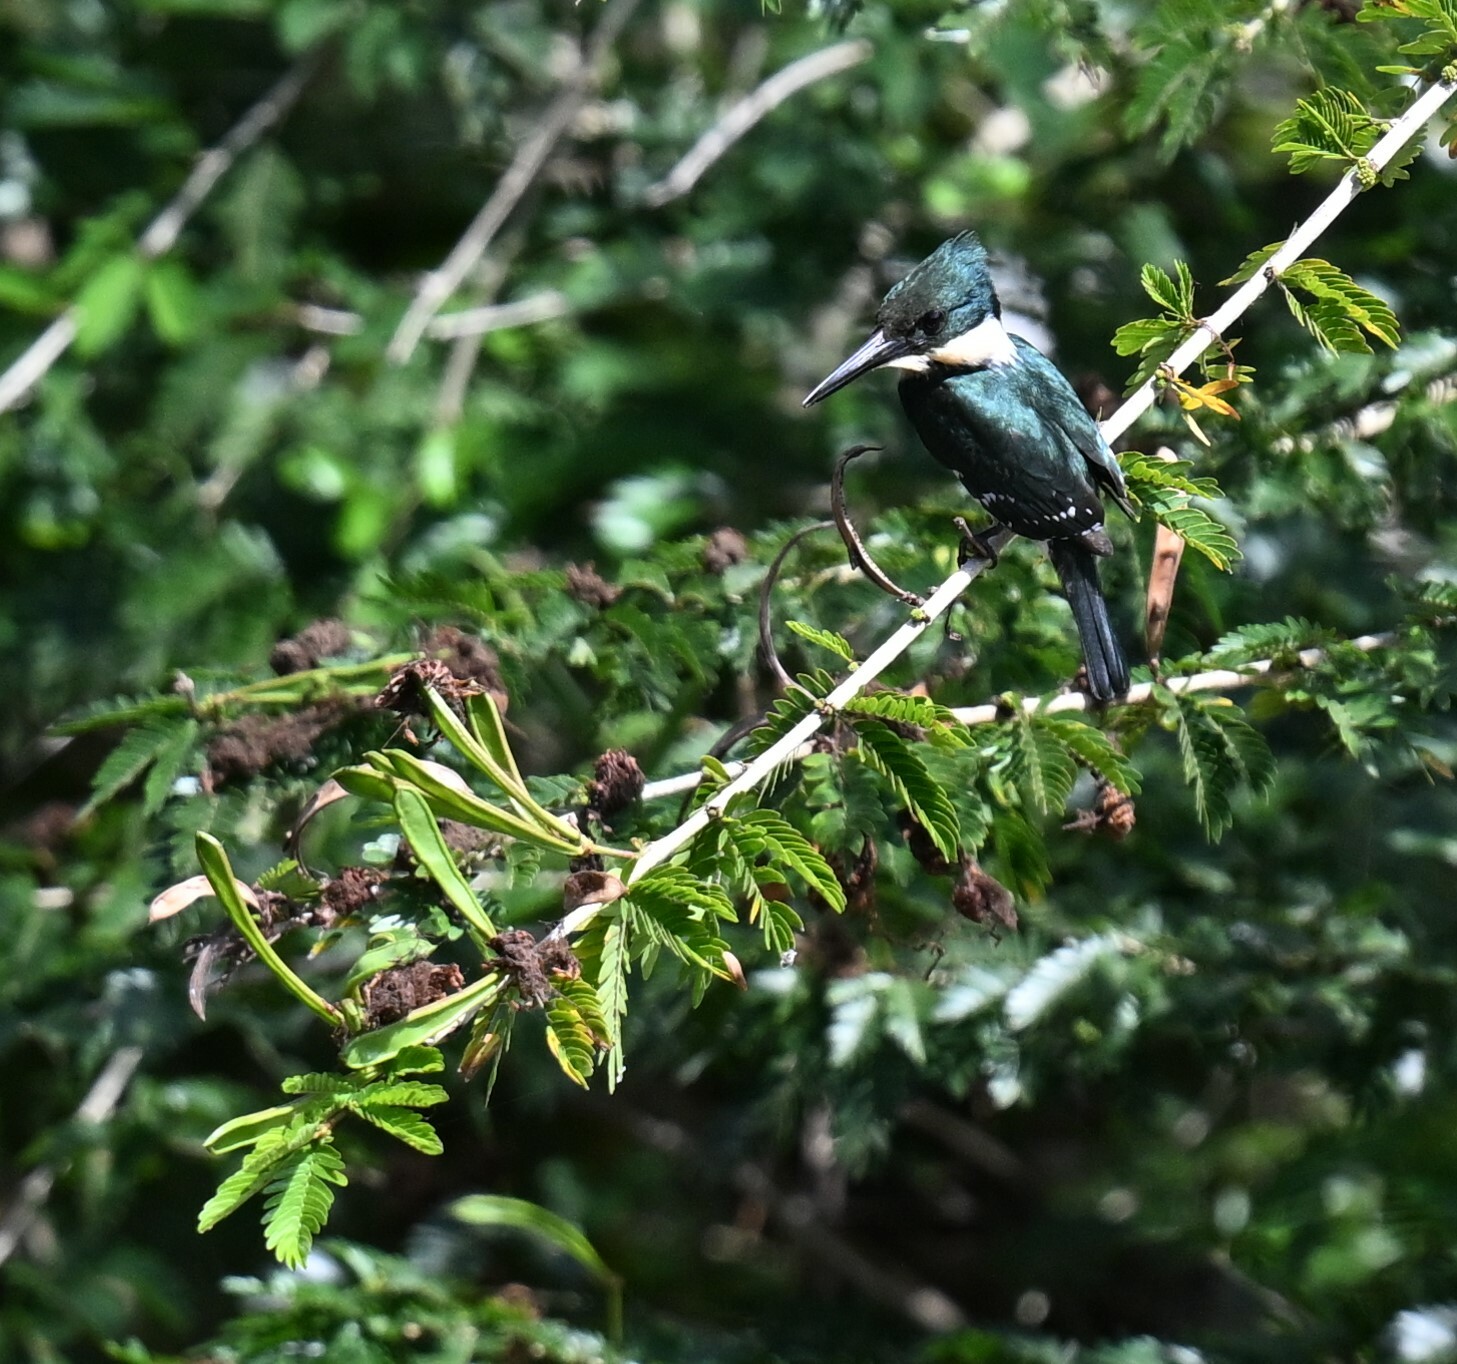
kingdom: Animalia
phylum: Chordata
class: Aves
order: Coraciiformes
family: Alcedinidae
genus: Chloroceryle
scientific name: Chloroceryle americana
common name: Green kingfisher
